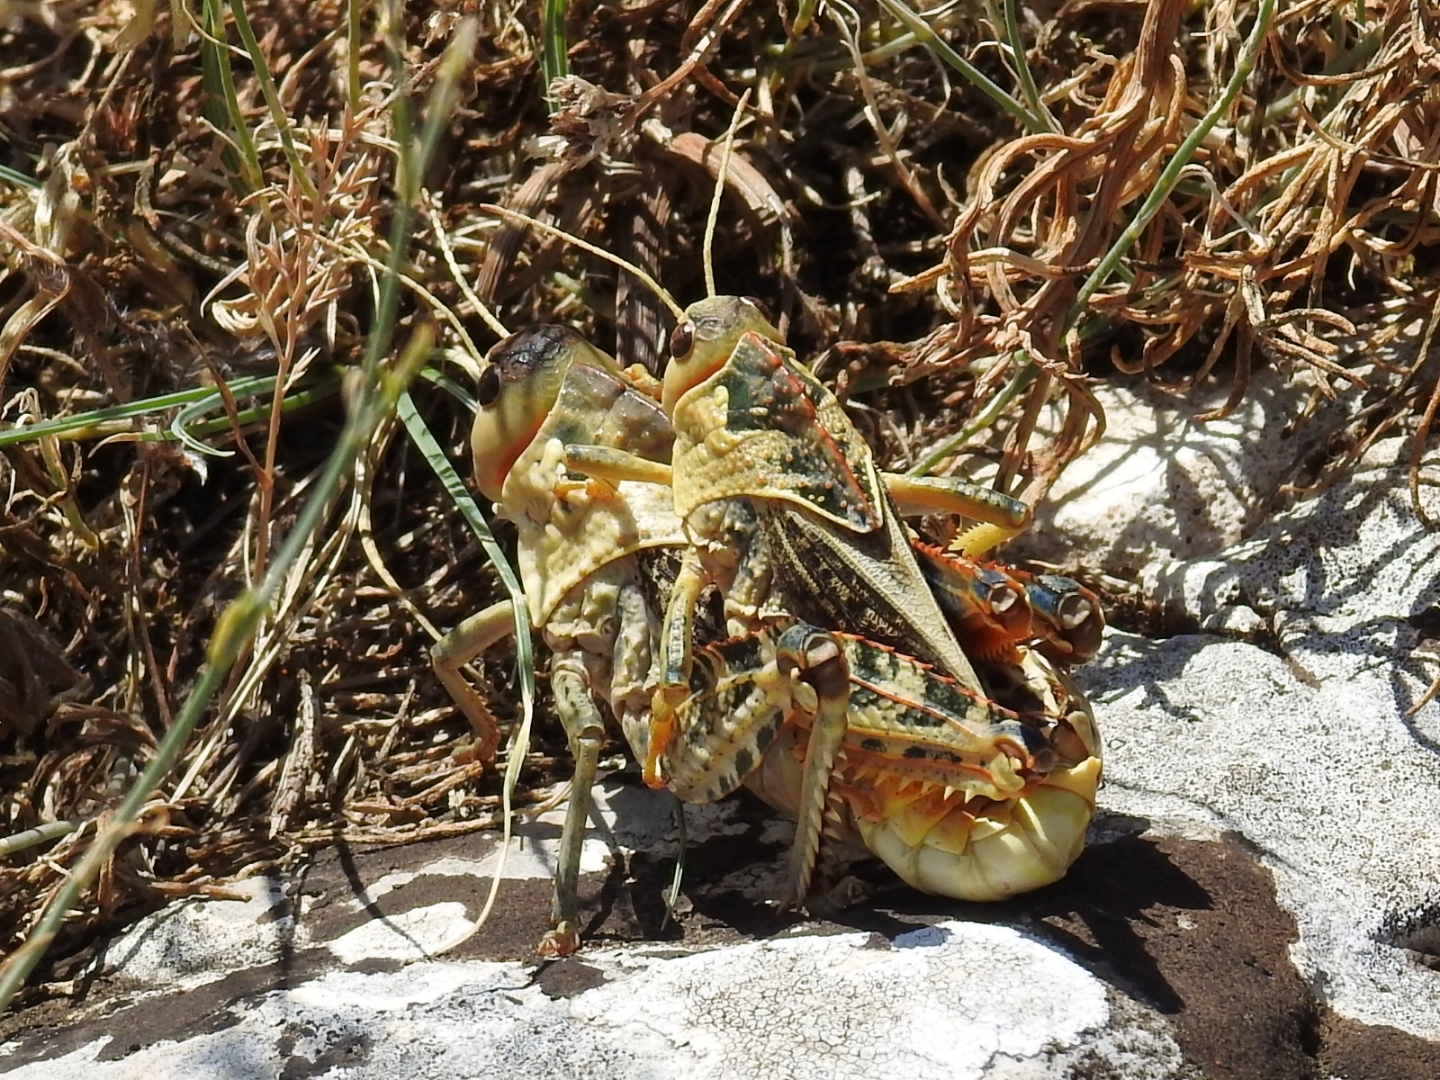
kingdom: Animalia
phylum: Arthropoda
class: Insecta
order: Orthoptera
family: Pamphagidae
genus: Prionotropis
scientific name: Prionotropis appula
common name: Apulian stone grasshopper
